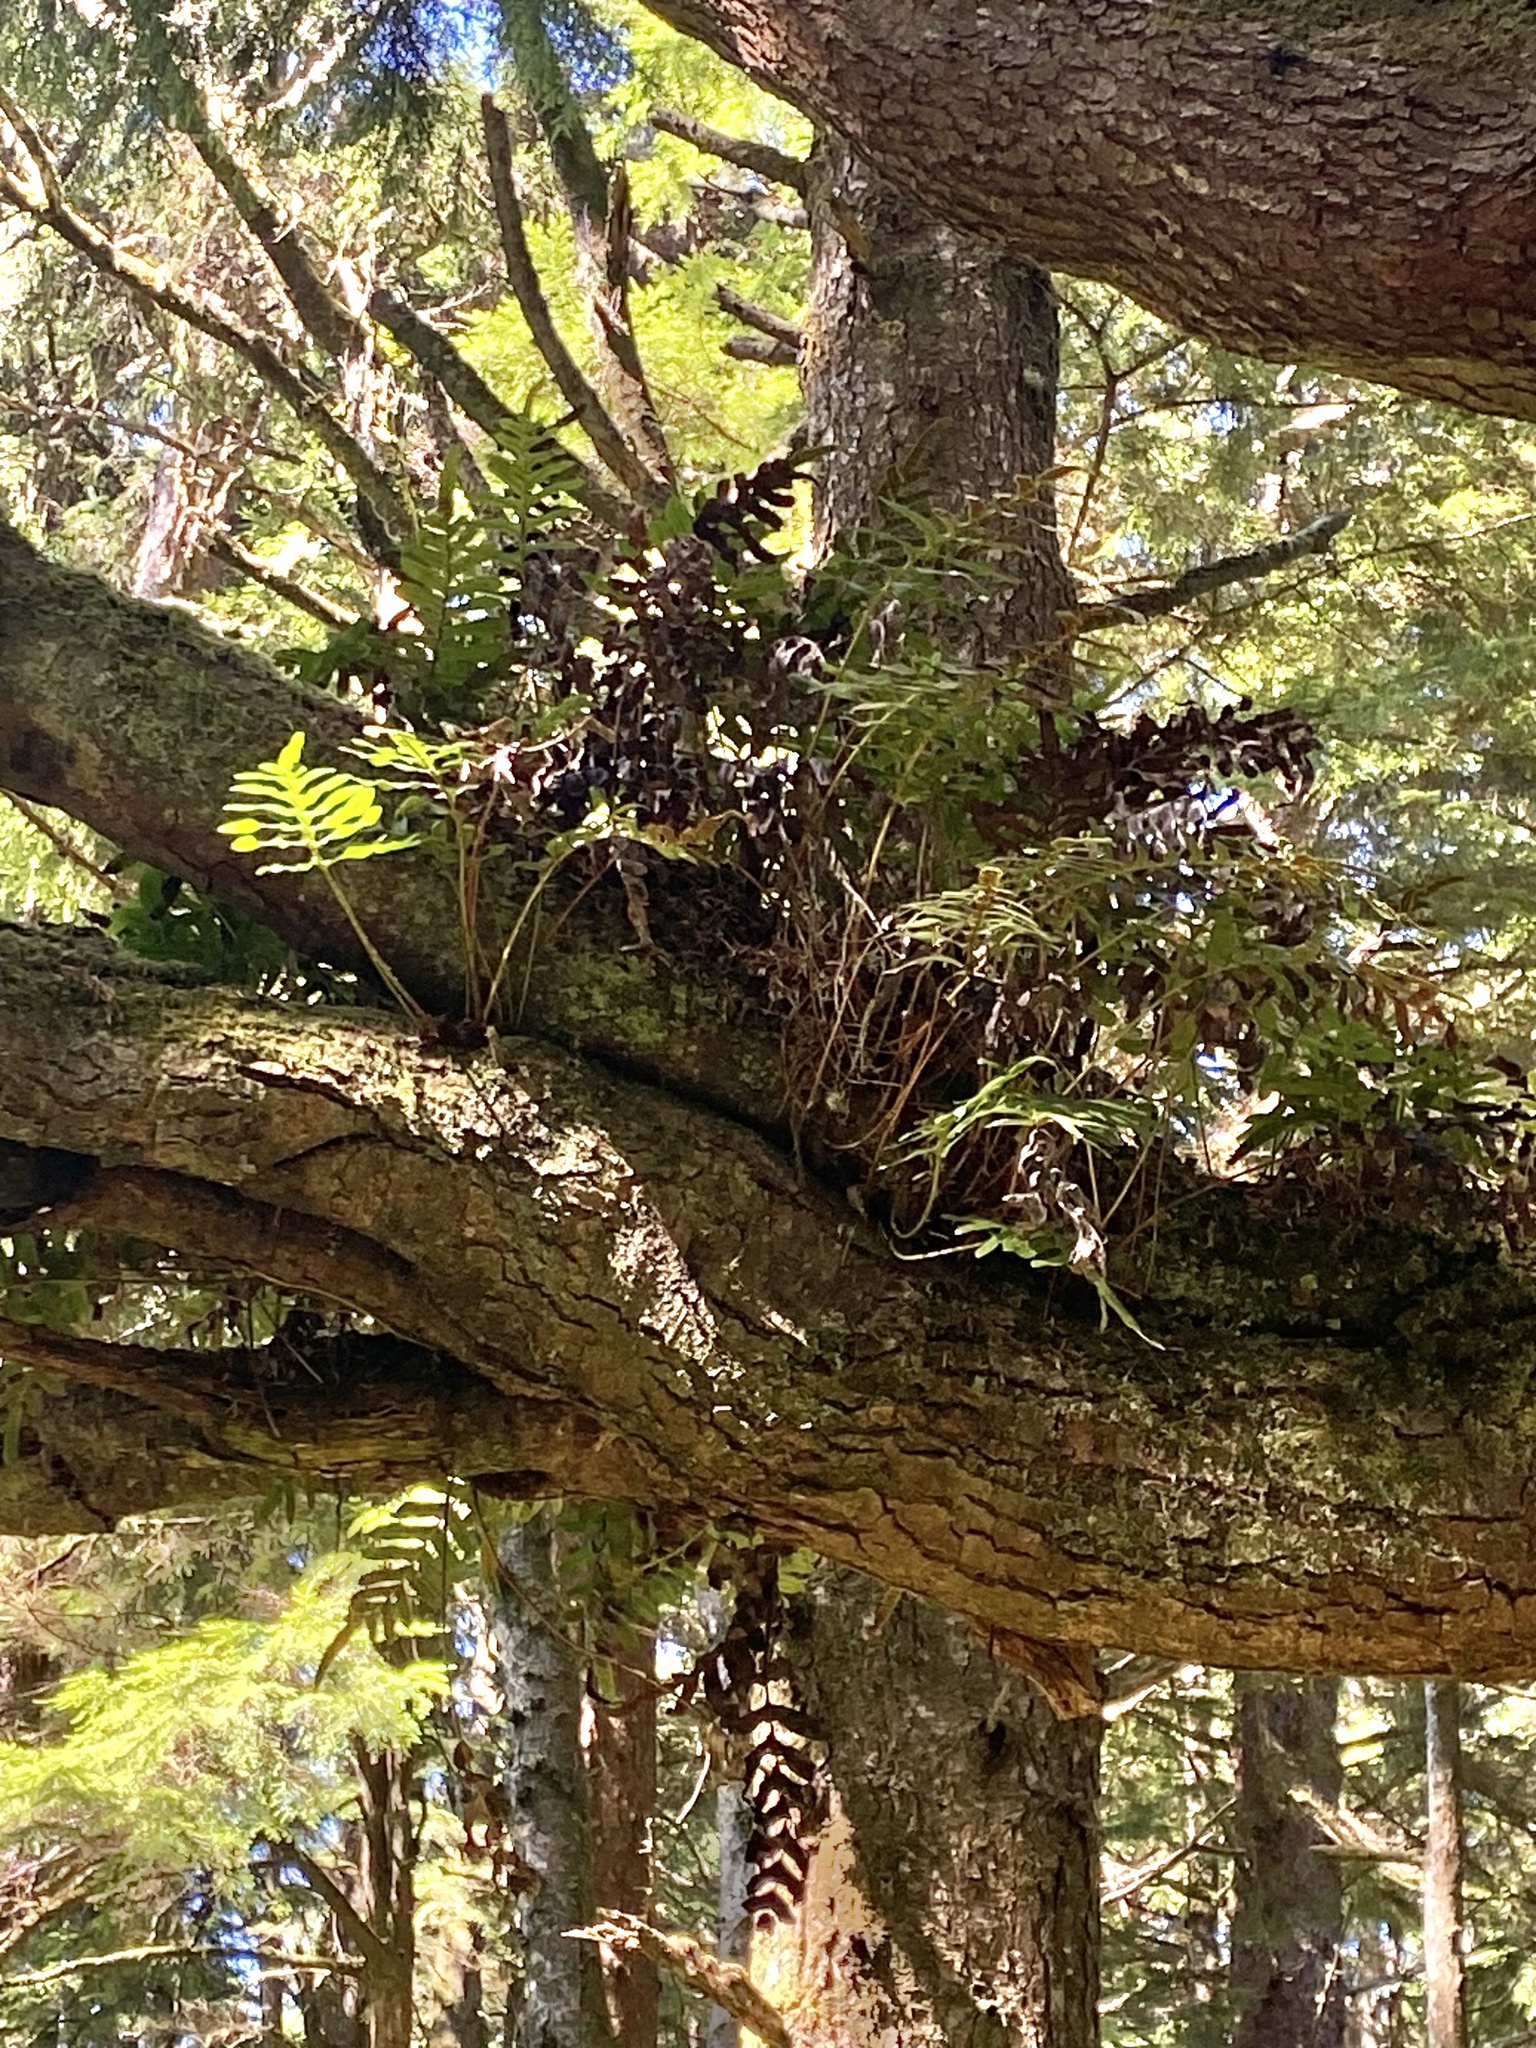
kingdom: Plantae
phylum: Tracheophyta
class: Polypodiopsida
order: Polypodiales
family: Polypodiaceae
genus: Polypodium
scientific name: Polypodium scouleri
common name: Scouler's polypody
